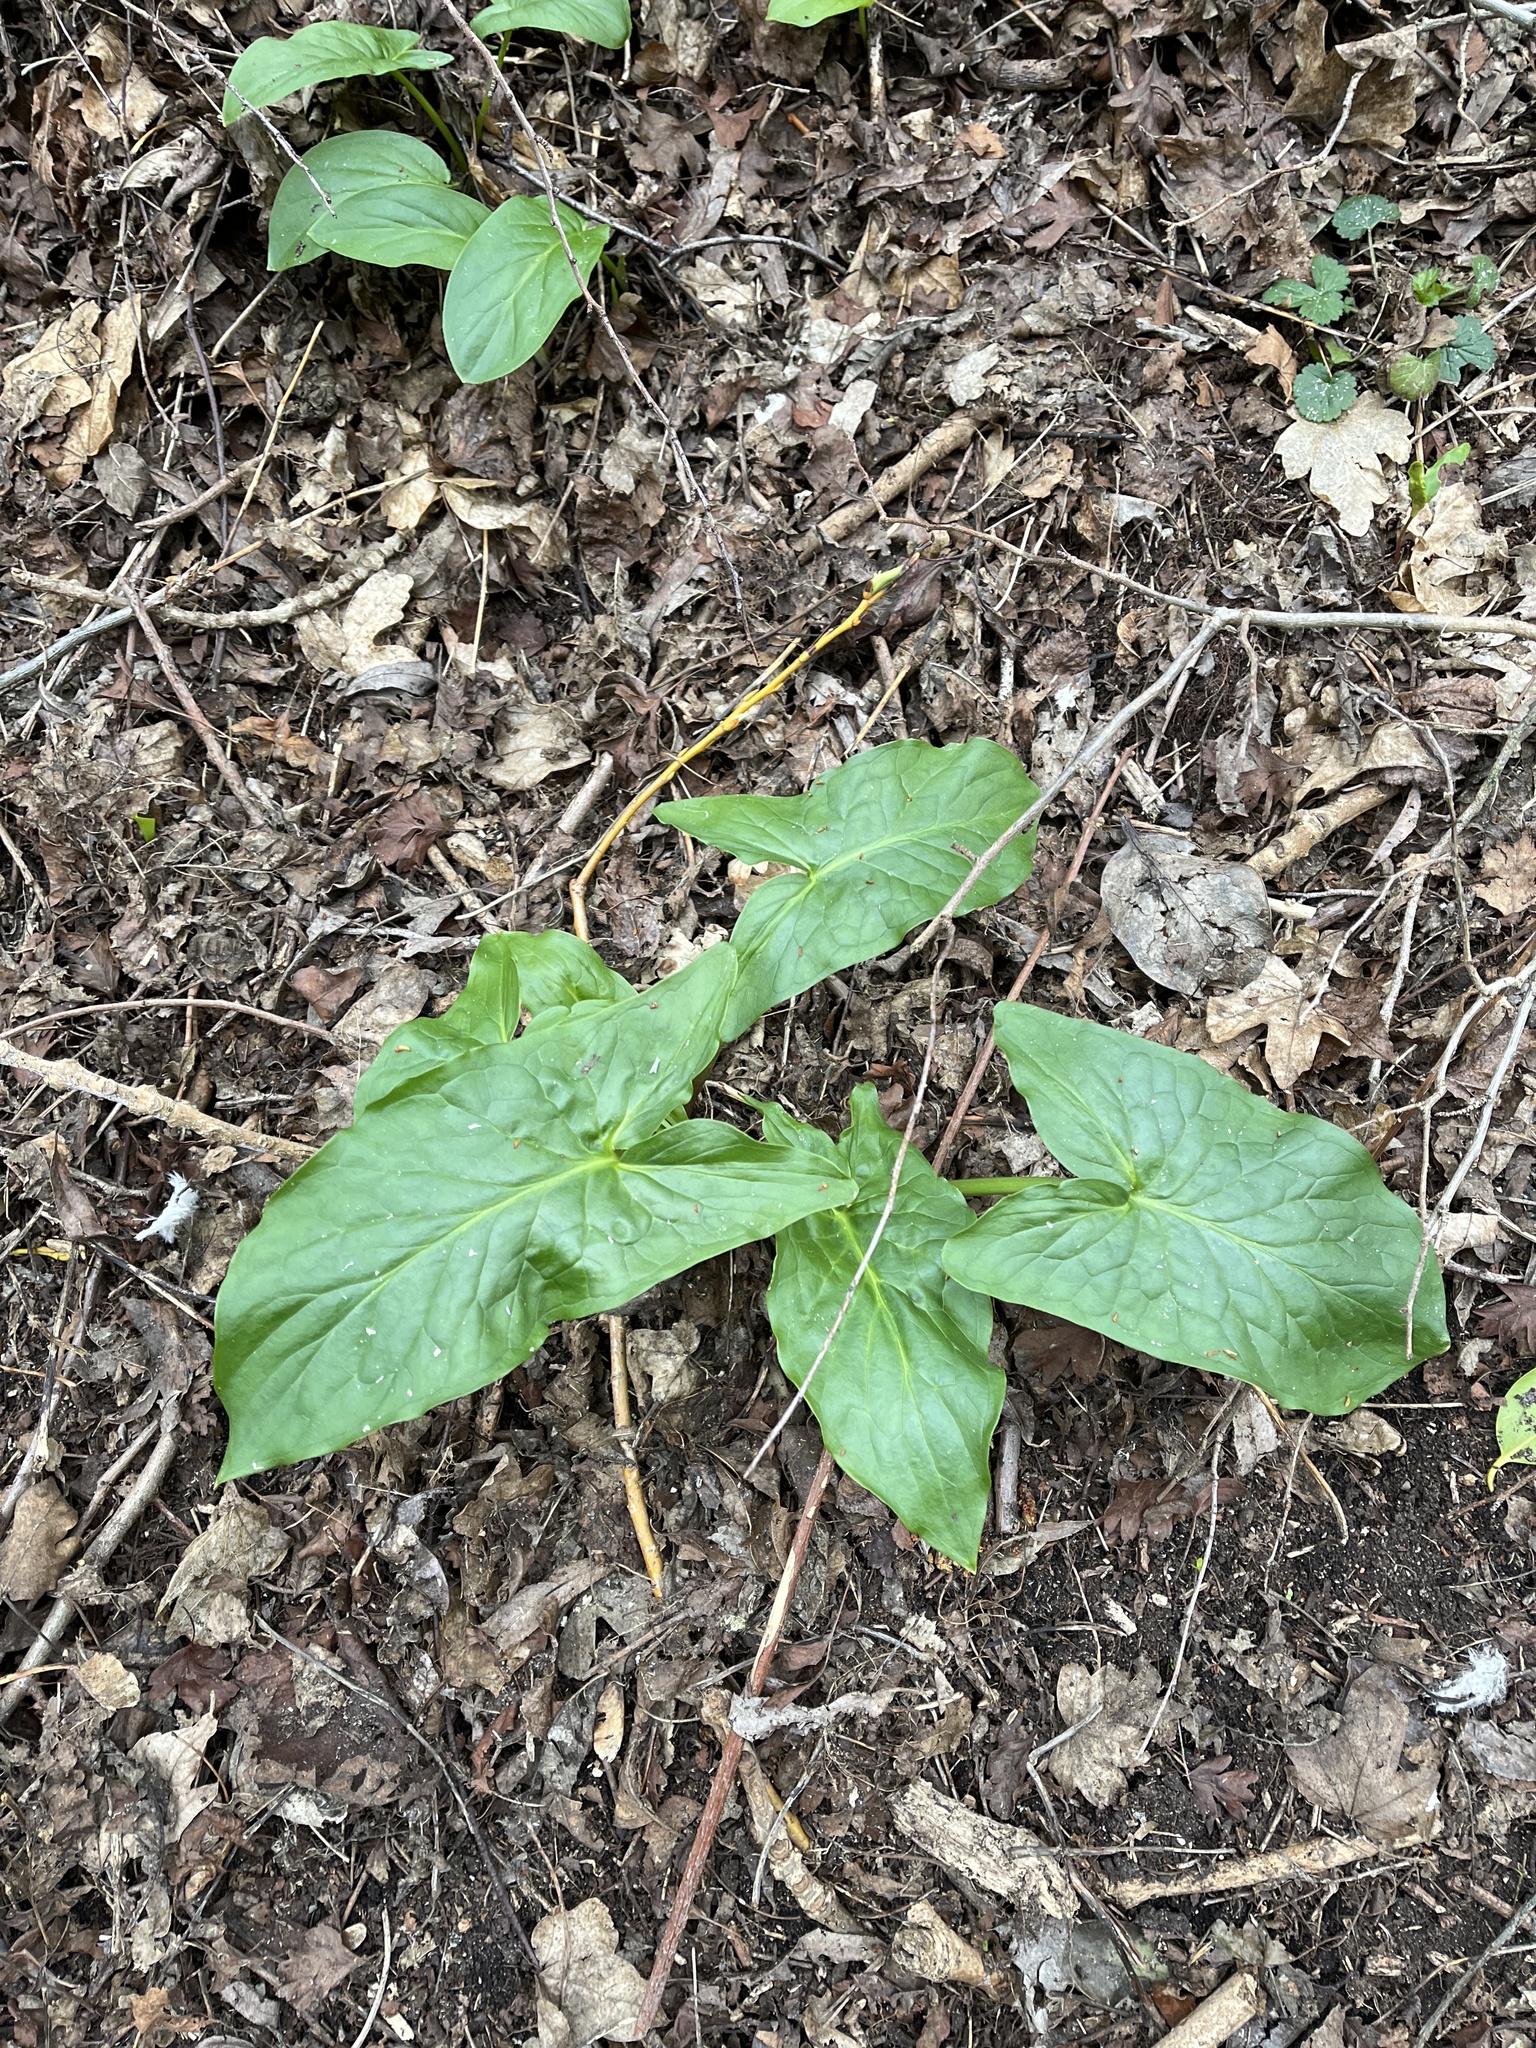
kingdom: Plantae
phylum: Tracheophyta
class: Liliopsida
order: Alismatales
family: Araceae
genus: Arum
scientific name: Arum maculatum
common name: Lords-and-ladies
